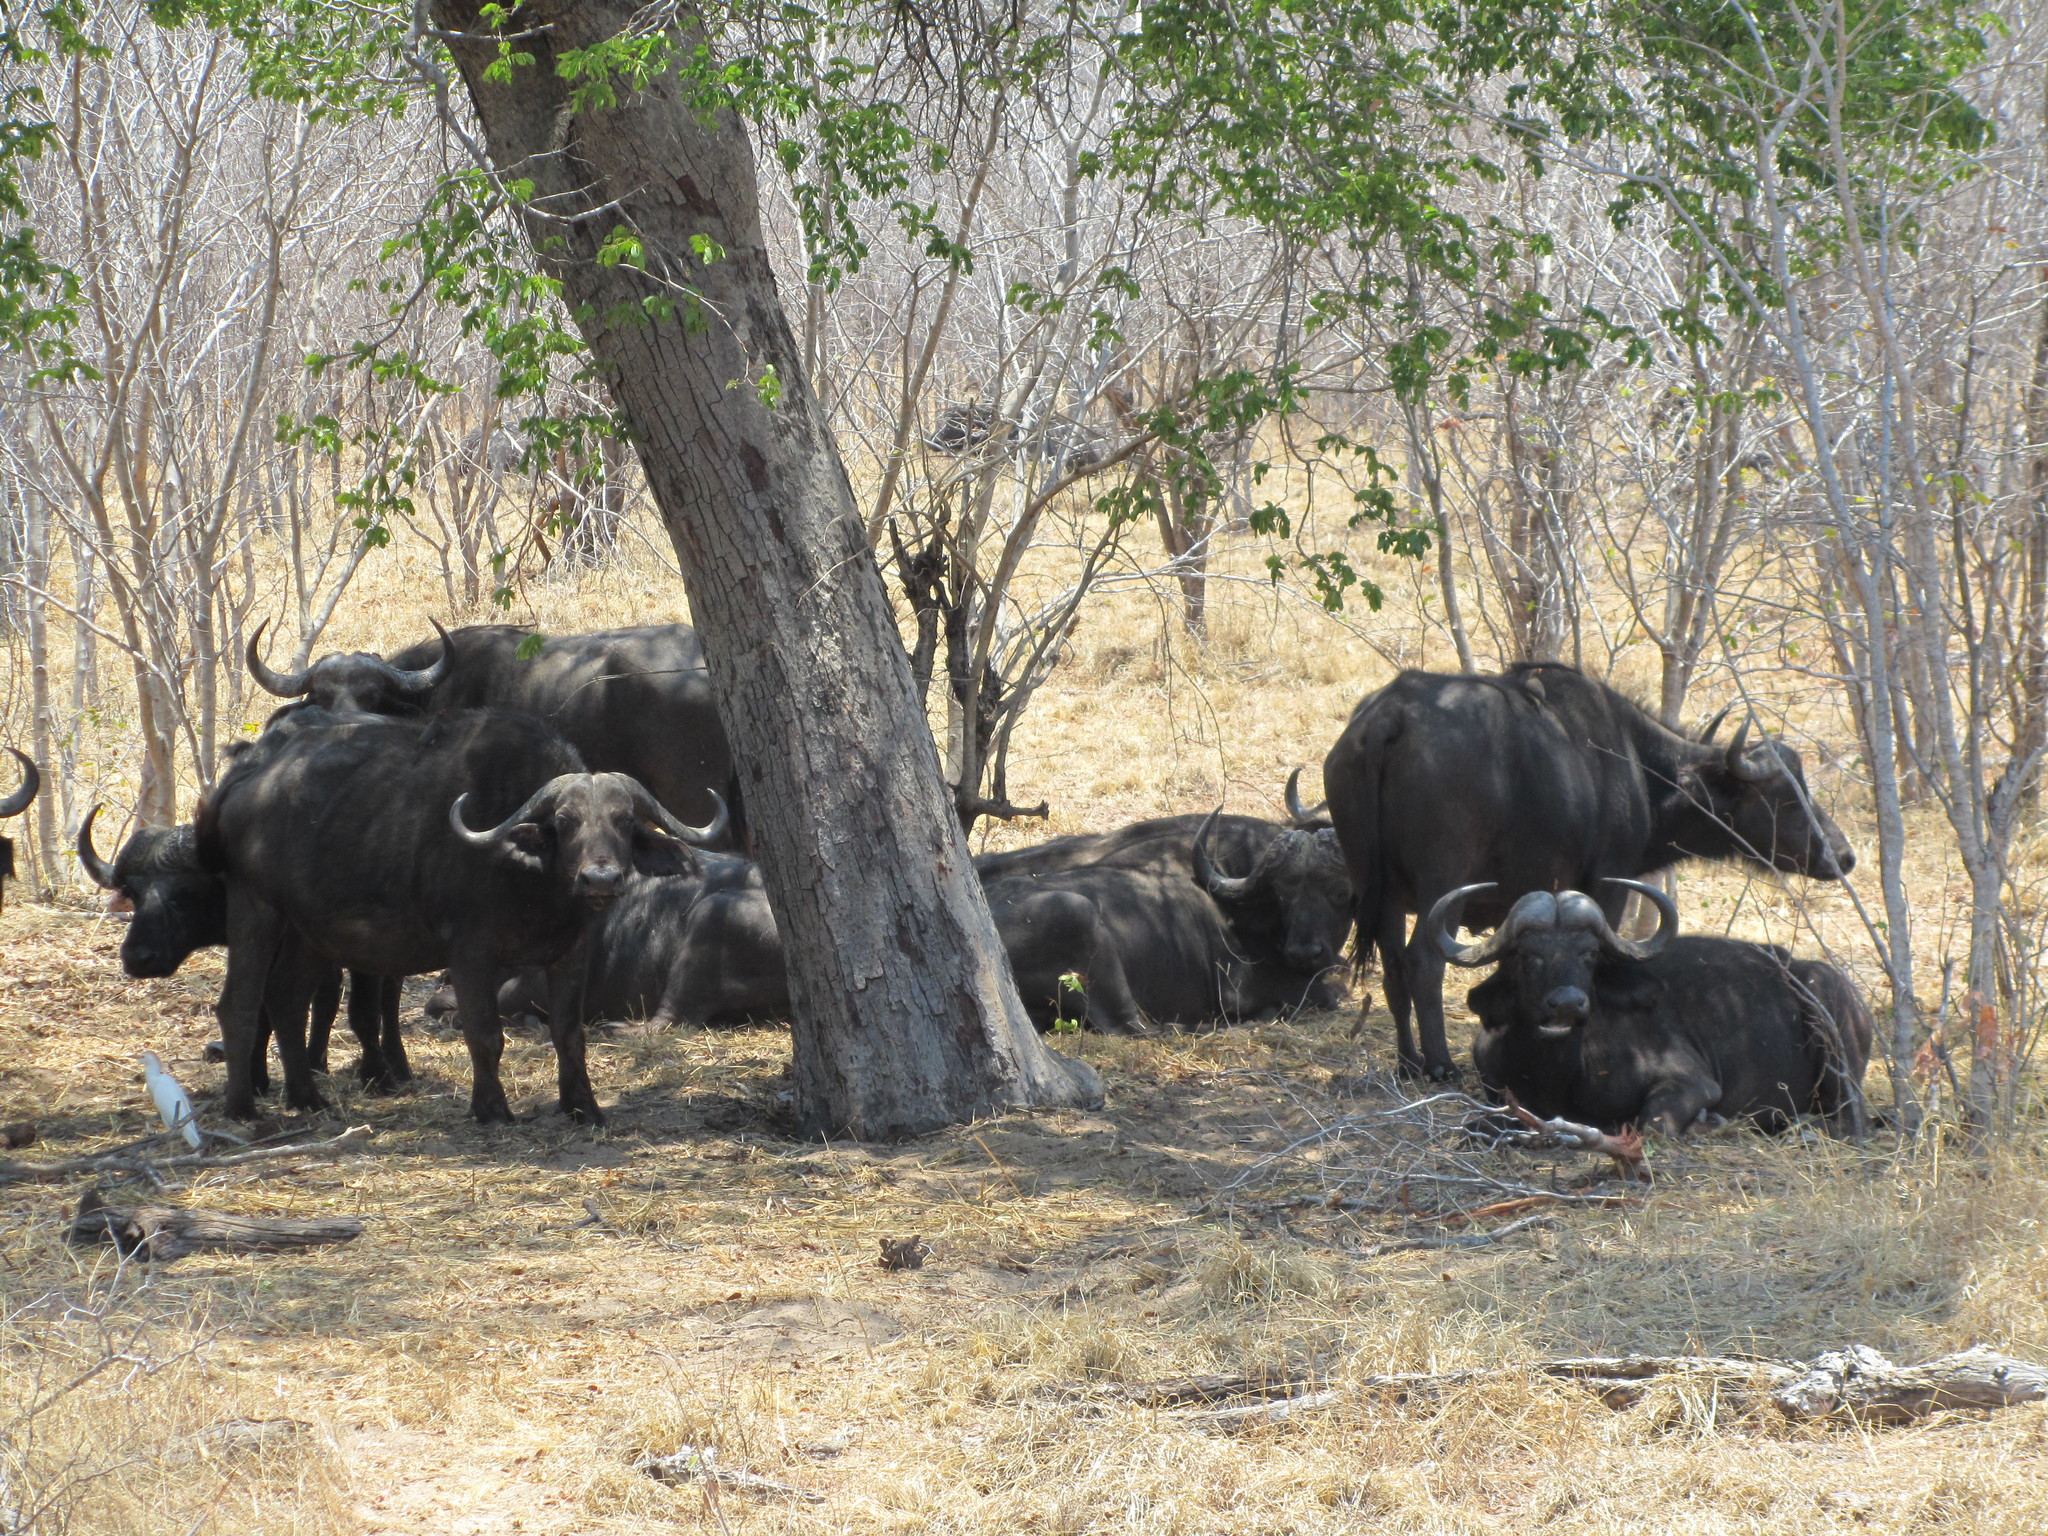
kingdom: Animalia
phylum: Chordata
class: Mammalia
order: Artiodactyla
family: Bovidae
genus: Syncerus
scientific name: Syncerus caffer
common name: African buffalo
